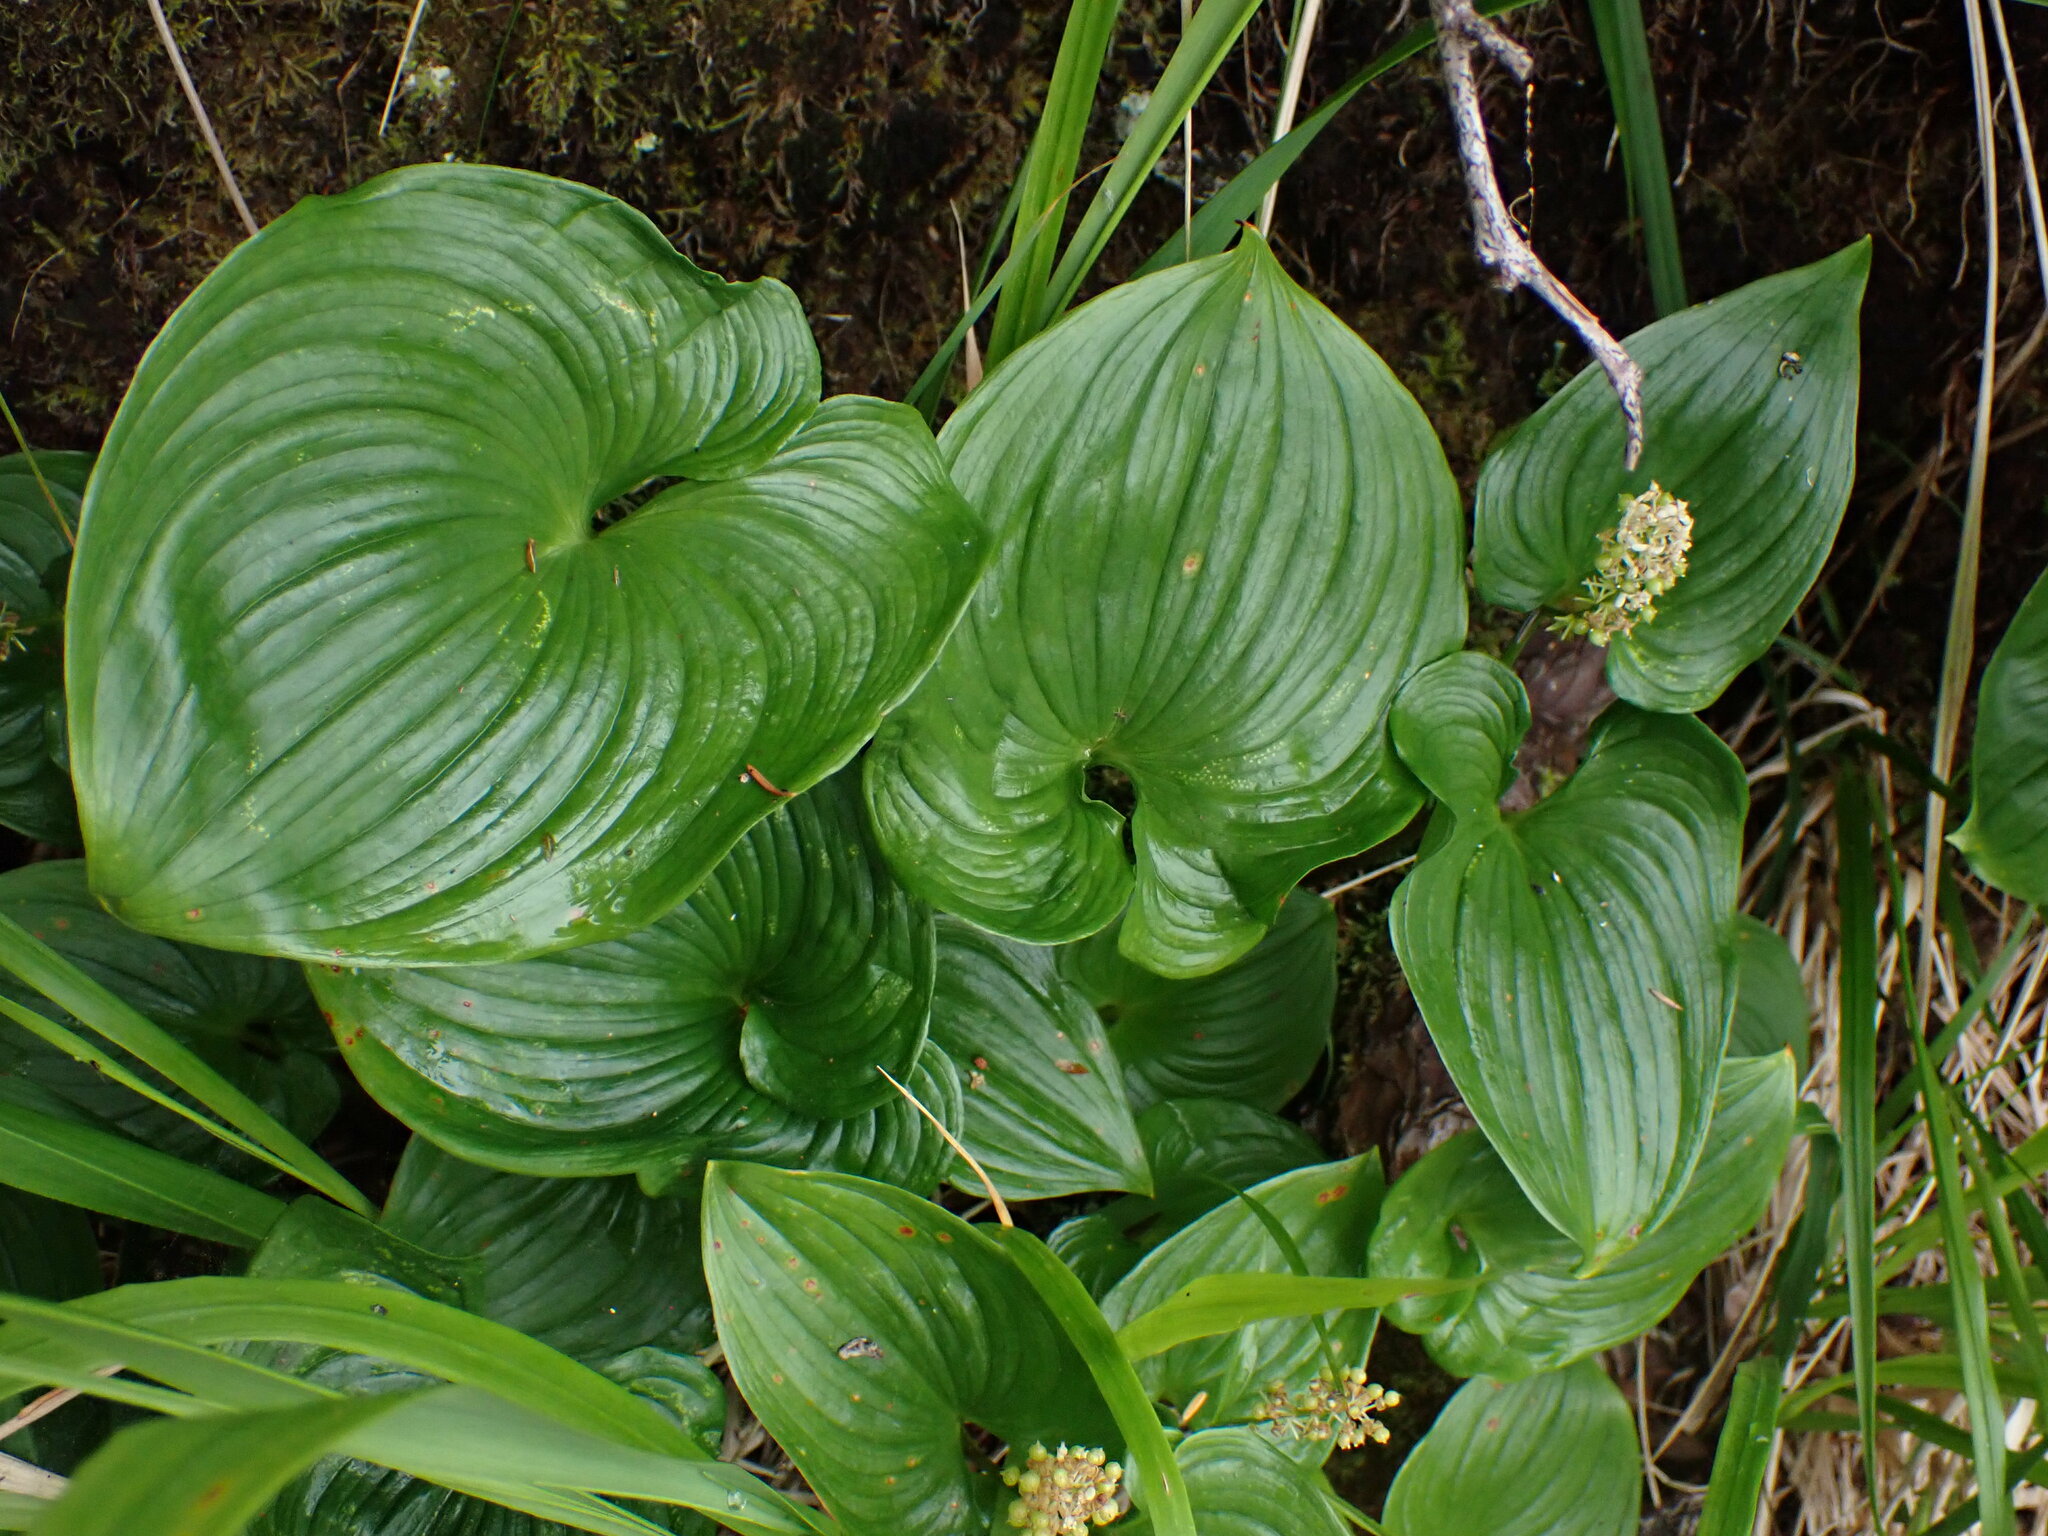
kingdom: Plantae
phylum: Tracheophyta
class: Liliopsida
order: Asparagales
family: Asparagaceae
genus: Maianthemum
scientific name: Maianthemum dilatatum
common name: False lily-of-the-valley
